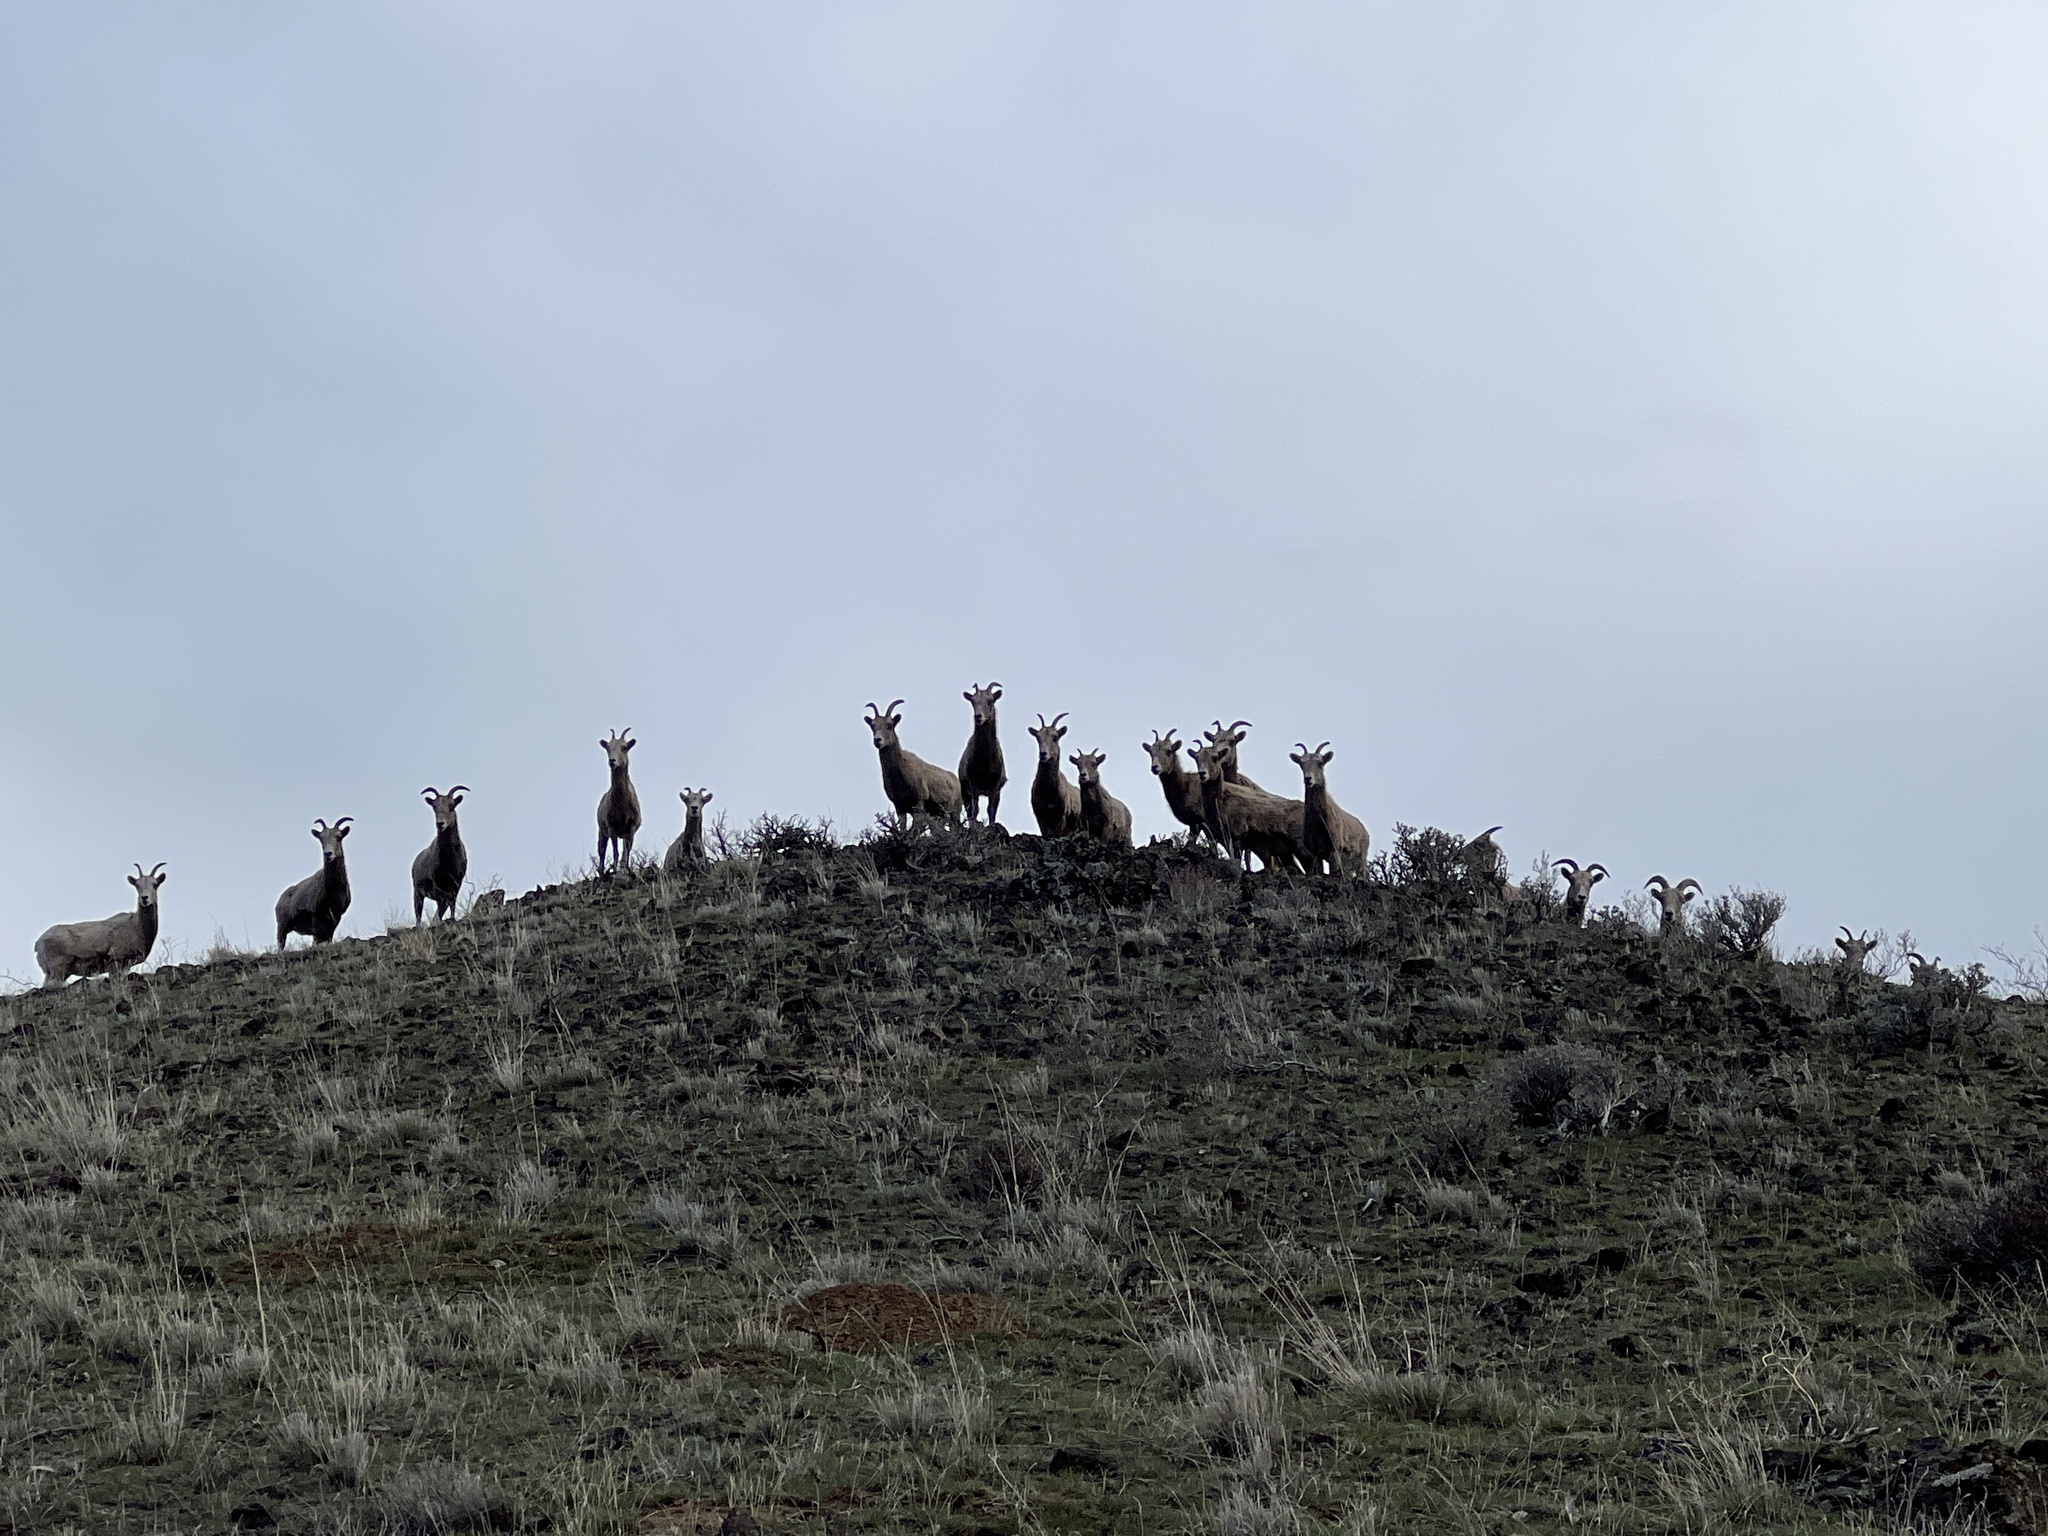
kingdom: Animalia
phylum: Chordata
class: Mammalia
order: Artiodactyla
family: Bovidae
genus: Ovis
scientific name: Ovis canadensis
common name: Bighorn sheep
